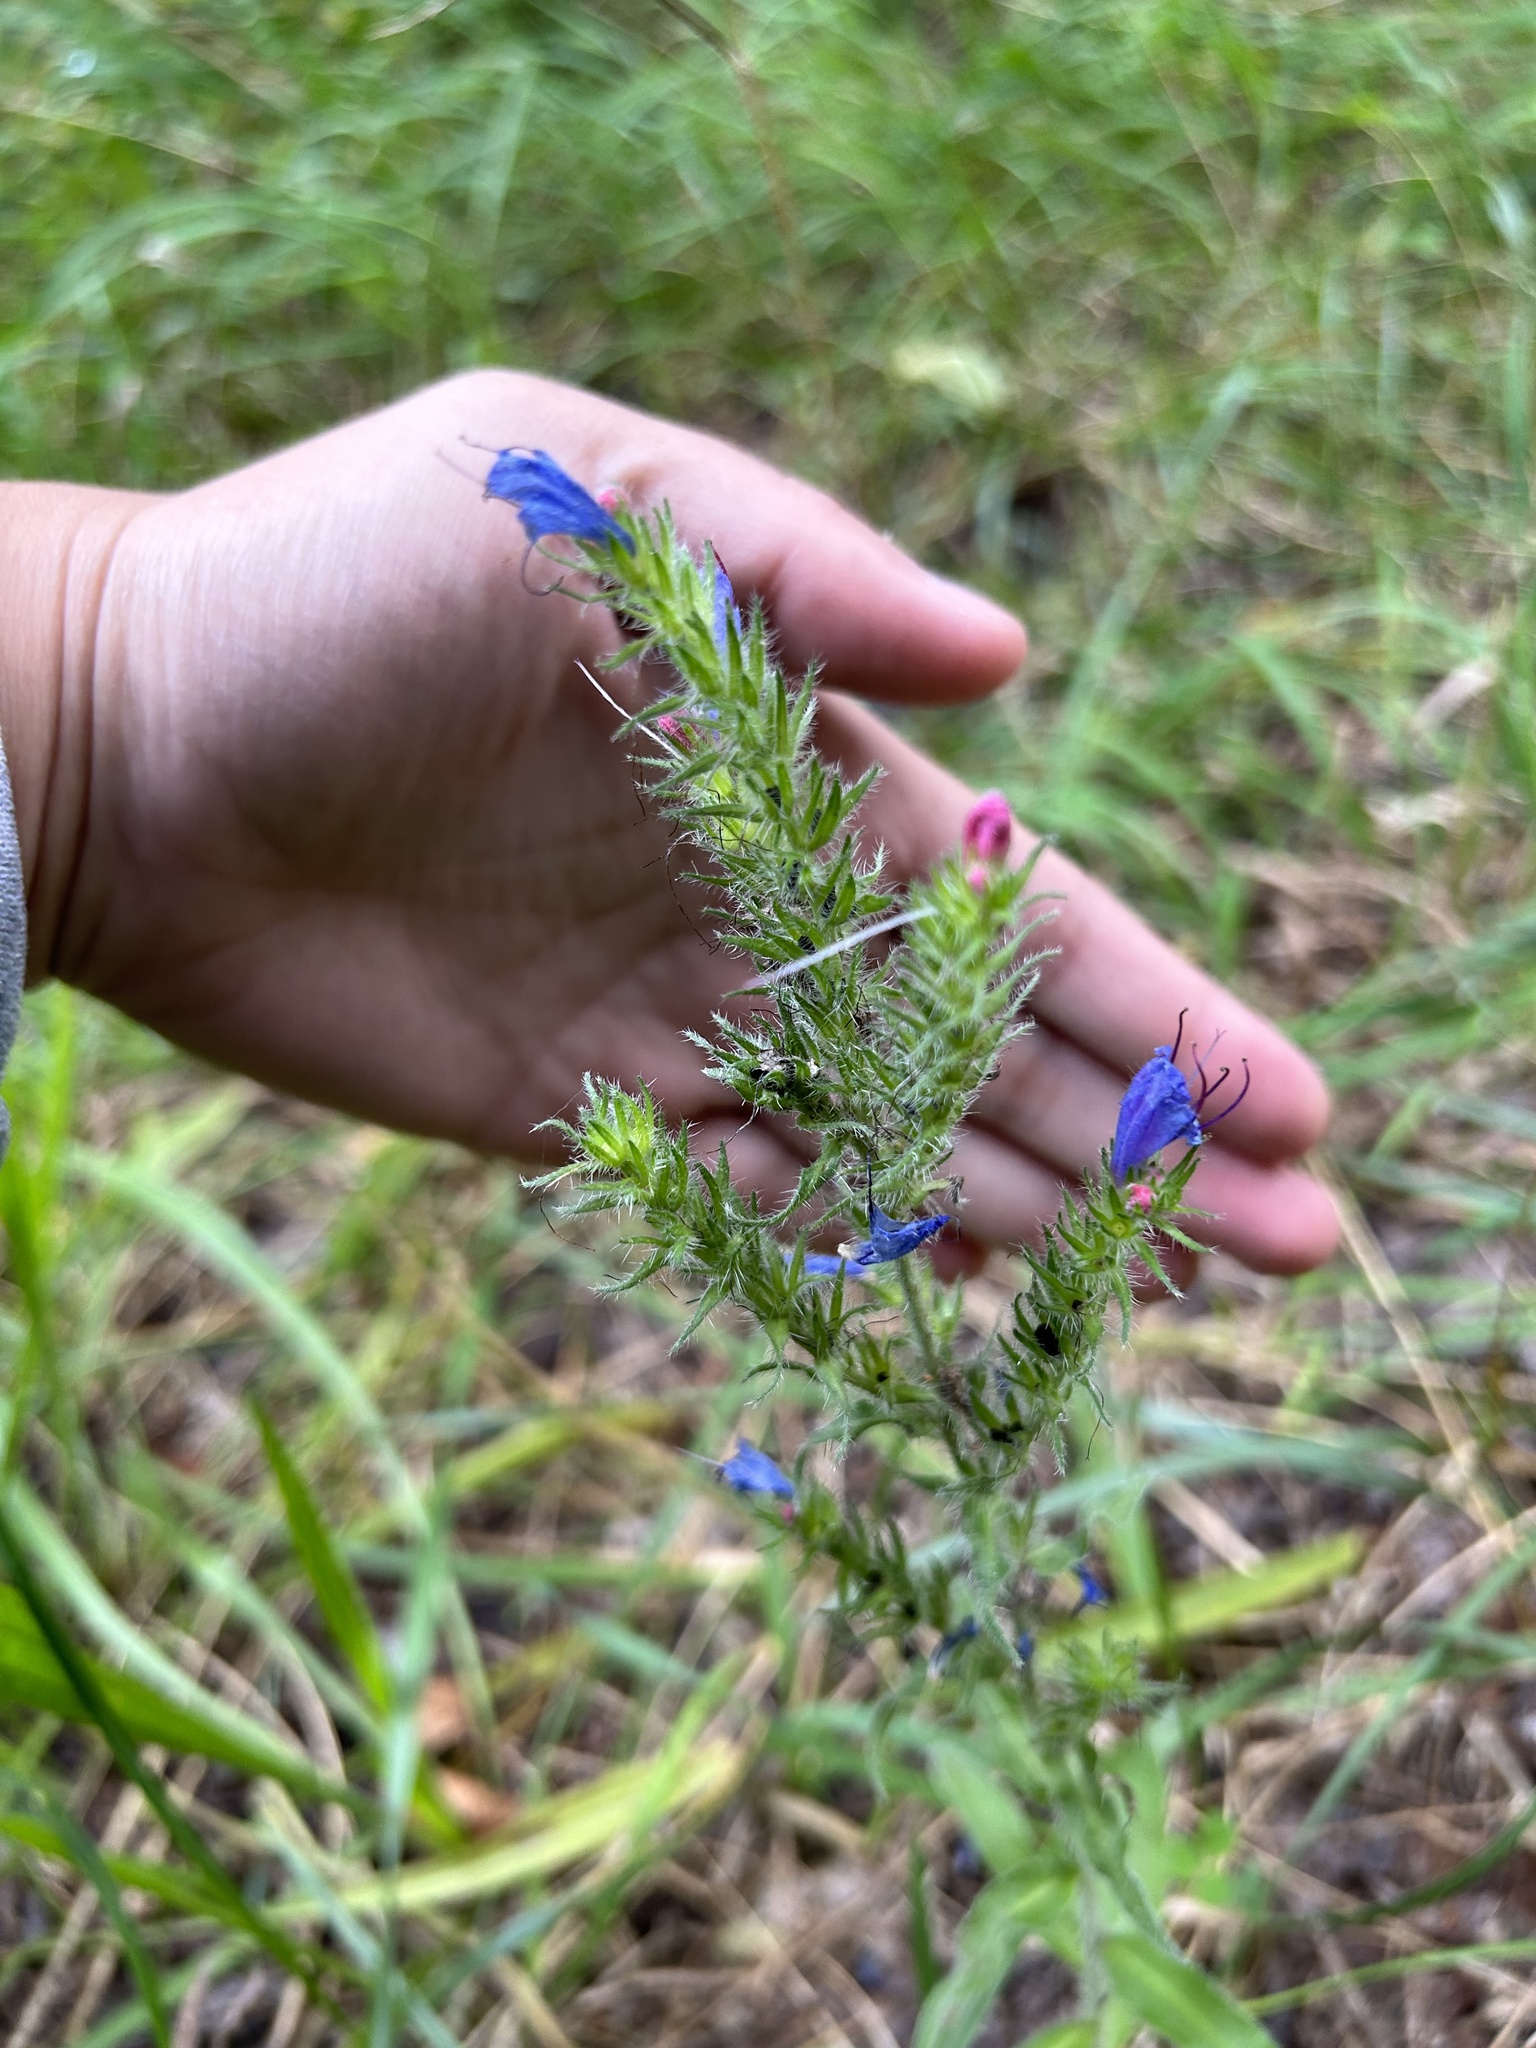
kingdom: Plantae
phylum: Tracheophyta
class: Magnoliopsida
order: Boraginales
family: Boraginaceae
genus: Echium
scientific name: Echium vulgare
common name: Common viper's bugloss
